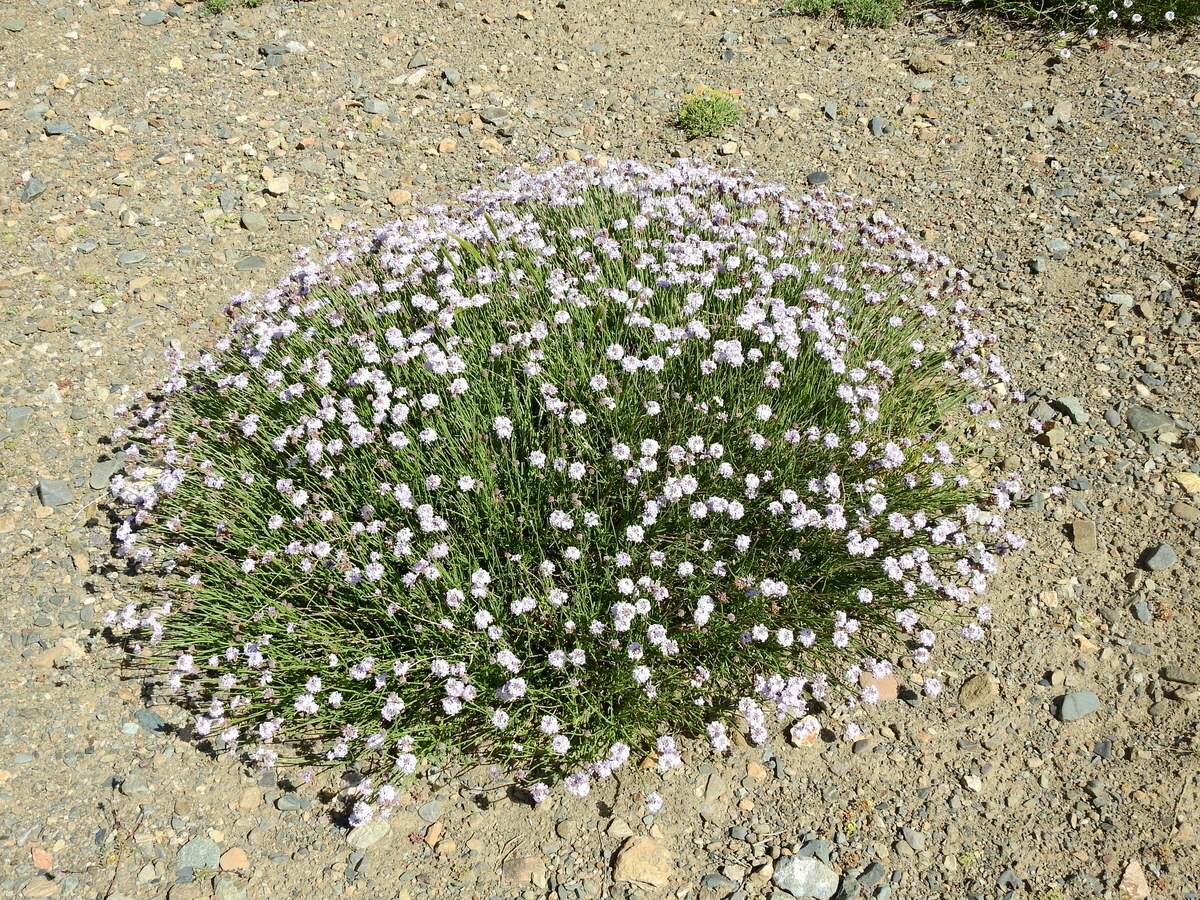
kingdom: Plantae
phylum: Tracheophyta
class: Magnoliopsida
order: Lamiales
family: Verbenaceae
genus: Junellia
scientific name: Junellia spathulata
